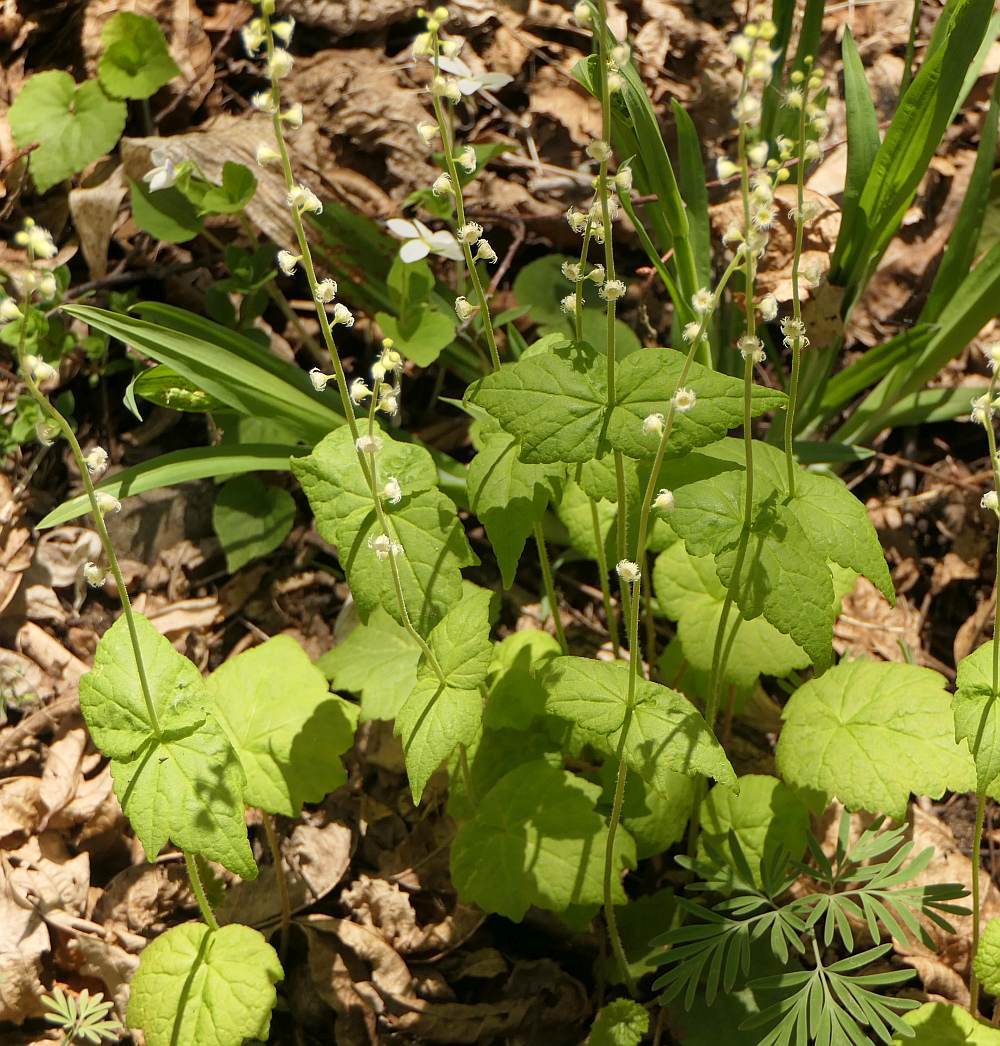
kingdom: Plantae
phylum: Tracheophyta
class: Magnoliopsida
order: Saxifragales
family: Saxifragaceae
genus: Mitella
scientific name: Mitella diphylla
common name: Coolwort
